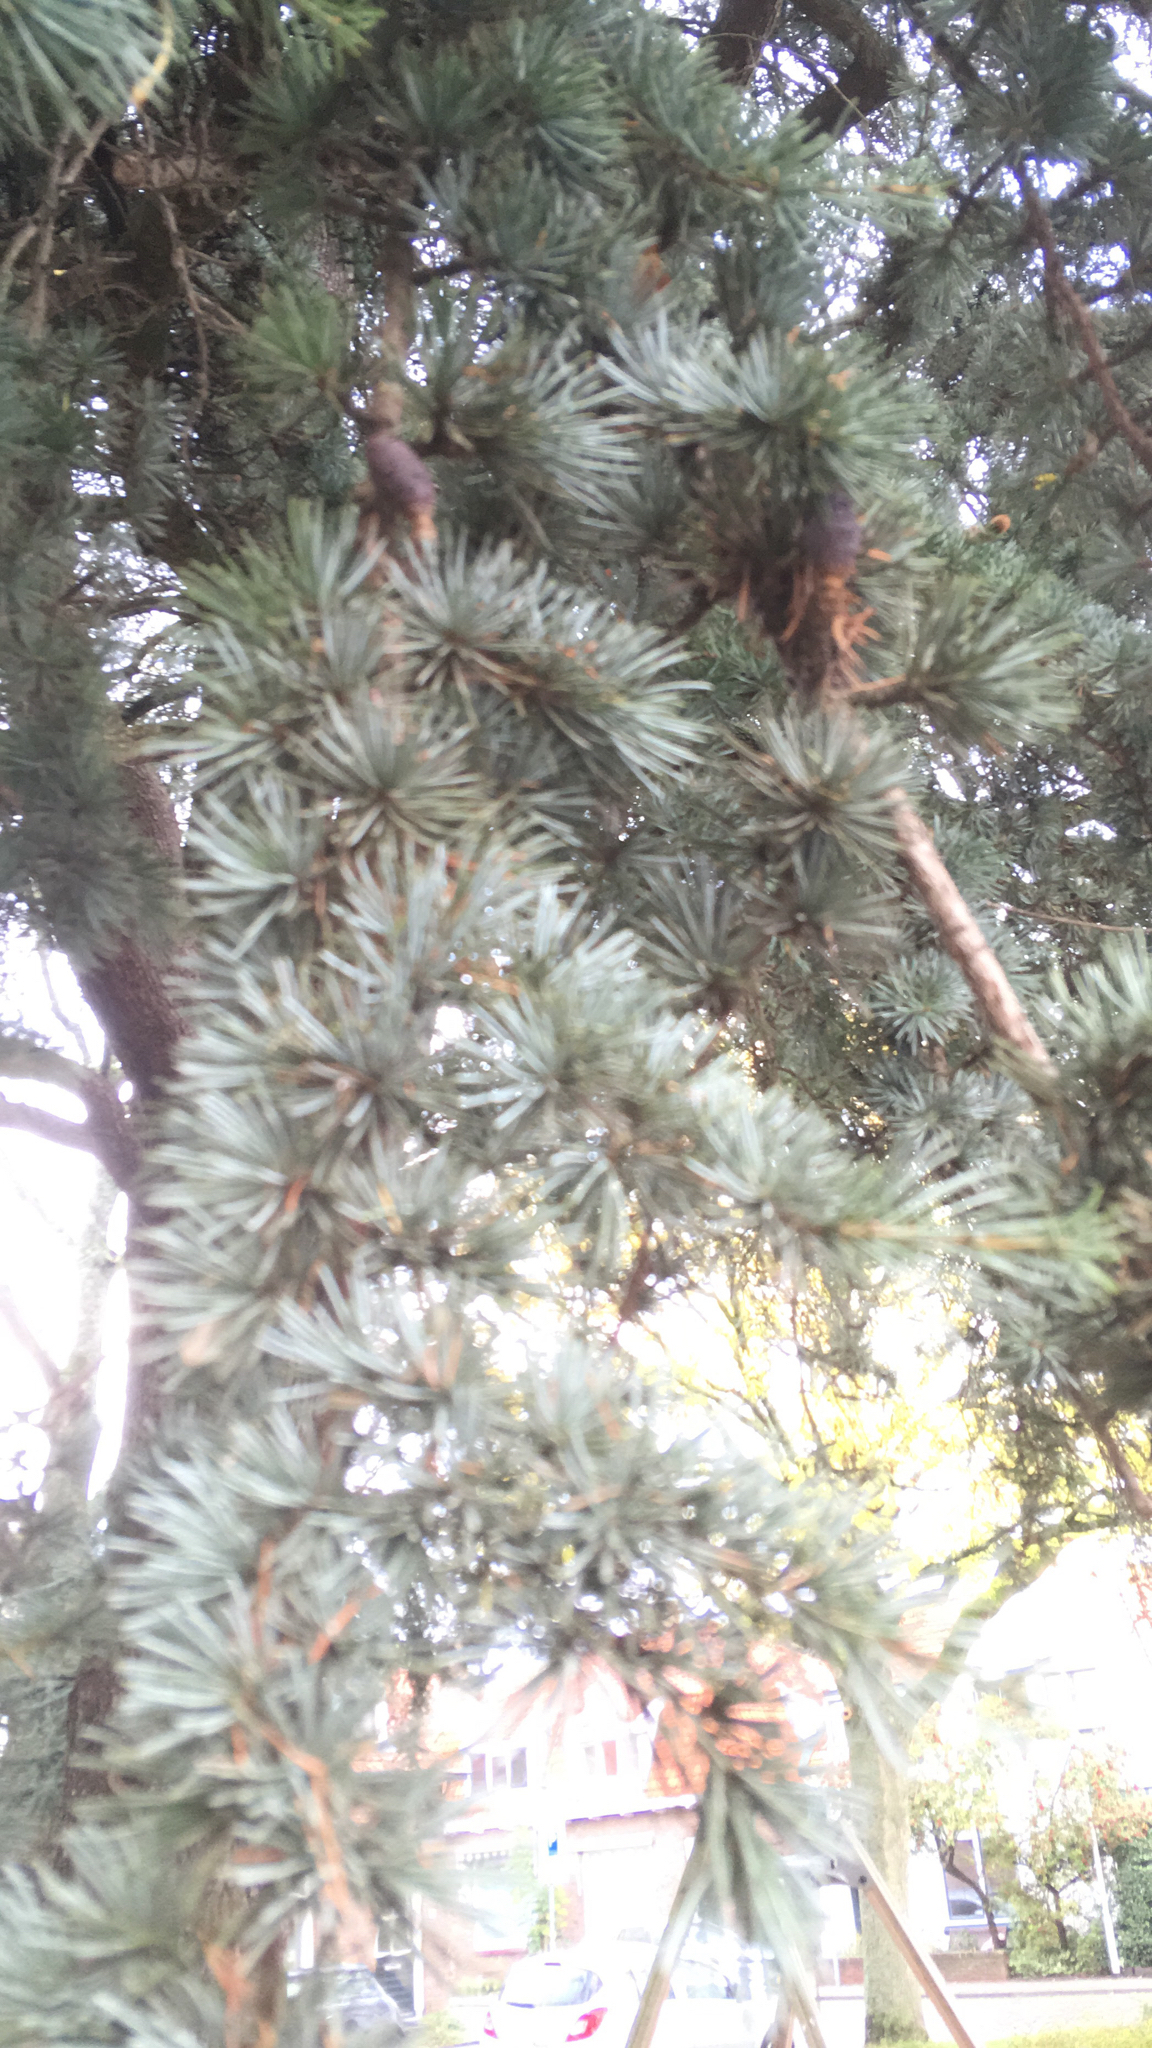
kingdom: Plantae
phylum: Tracheophyta
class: Pinopsida
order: Pinales
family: Pinaceae
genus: Cedrus
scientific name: Cedrus atlantica
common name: Atlas cedar
